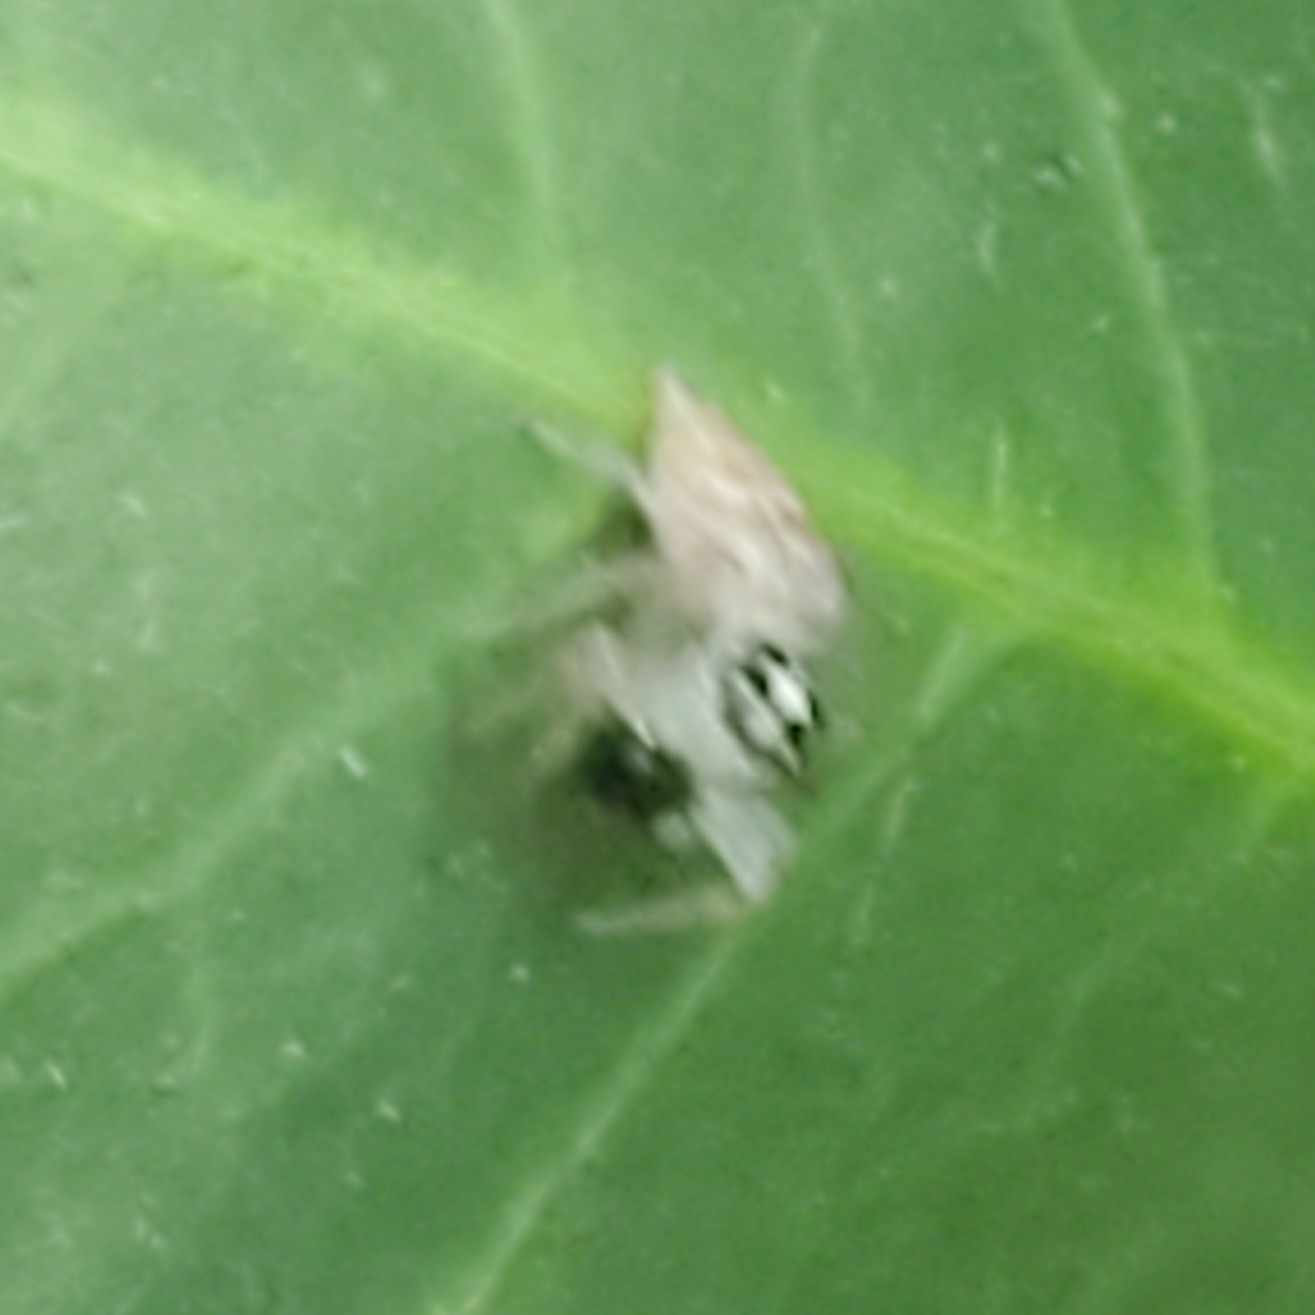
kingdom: Animalia
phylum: Arthropoda
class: Arachnida
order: Araneae
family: Salticidae
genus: Colonus
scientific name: Colonus hesperus
